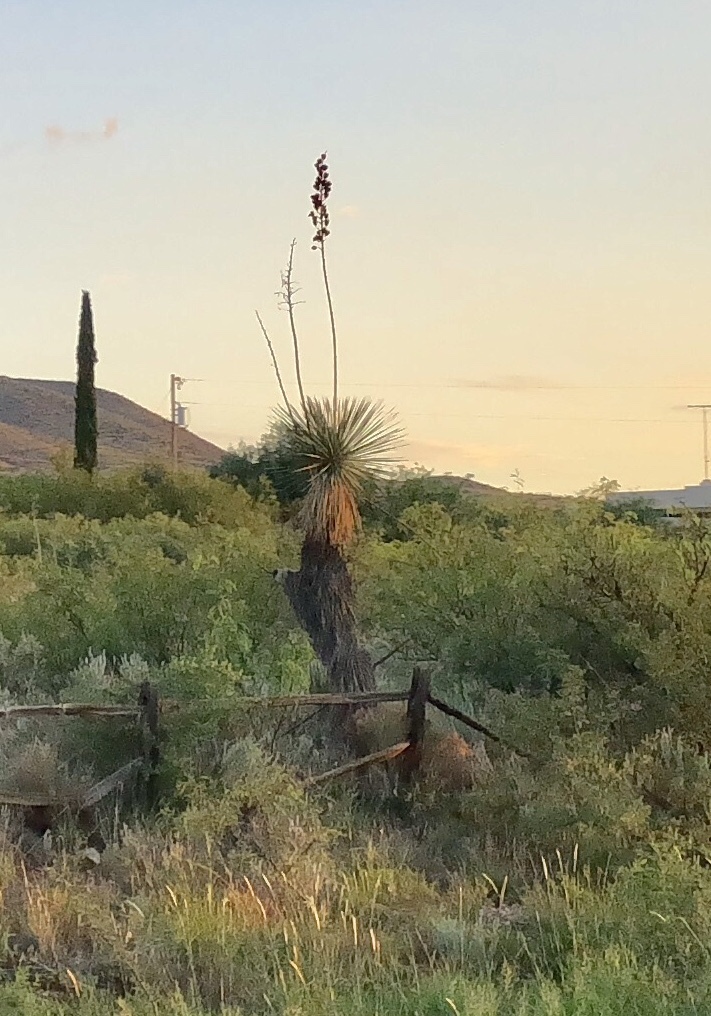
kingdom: Plantae
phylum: Tracheophyta
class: Liliopsida
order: Asparagales
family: Asparagaceae
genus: Yucca
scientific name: Yucca elata
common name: Palmella
